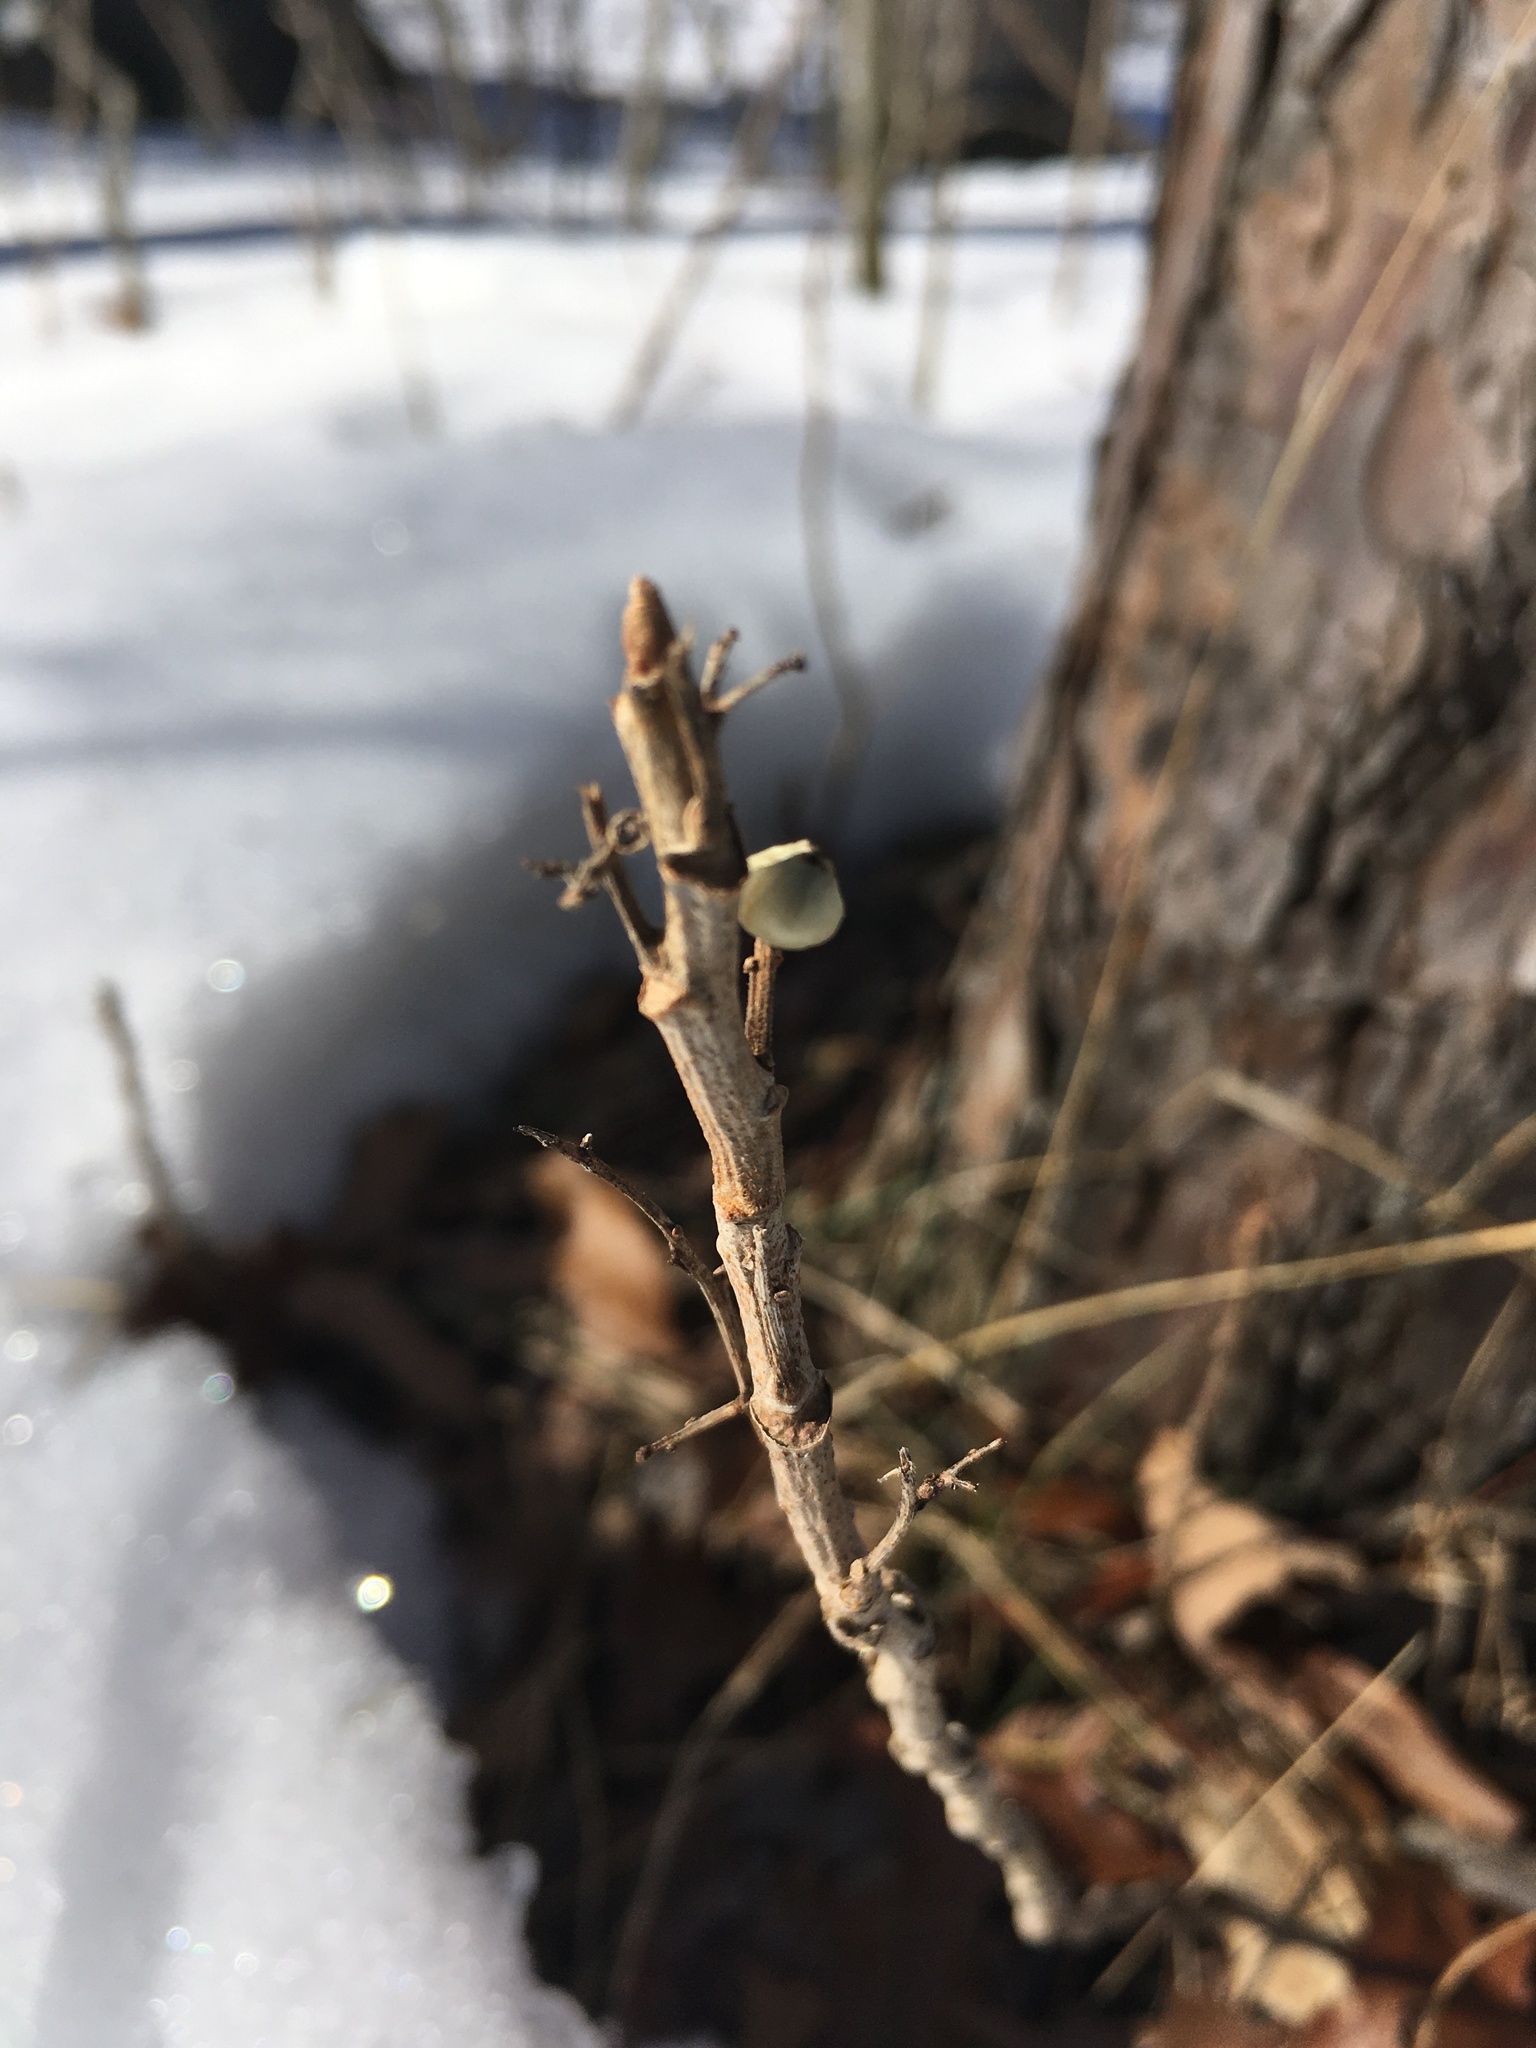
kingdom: Plantae
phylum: Tracheophyta
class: Magnoliopsida
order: Sapindales
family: Anacardiaceae
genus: Toxicodendron
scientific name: Toxicodendron rydbergii
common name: Rydberg's poison-ivy
